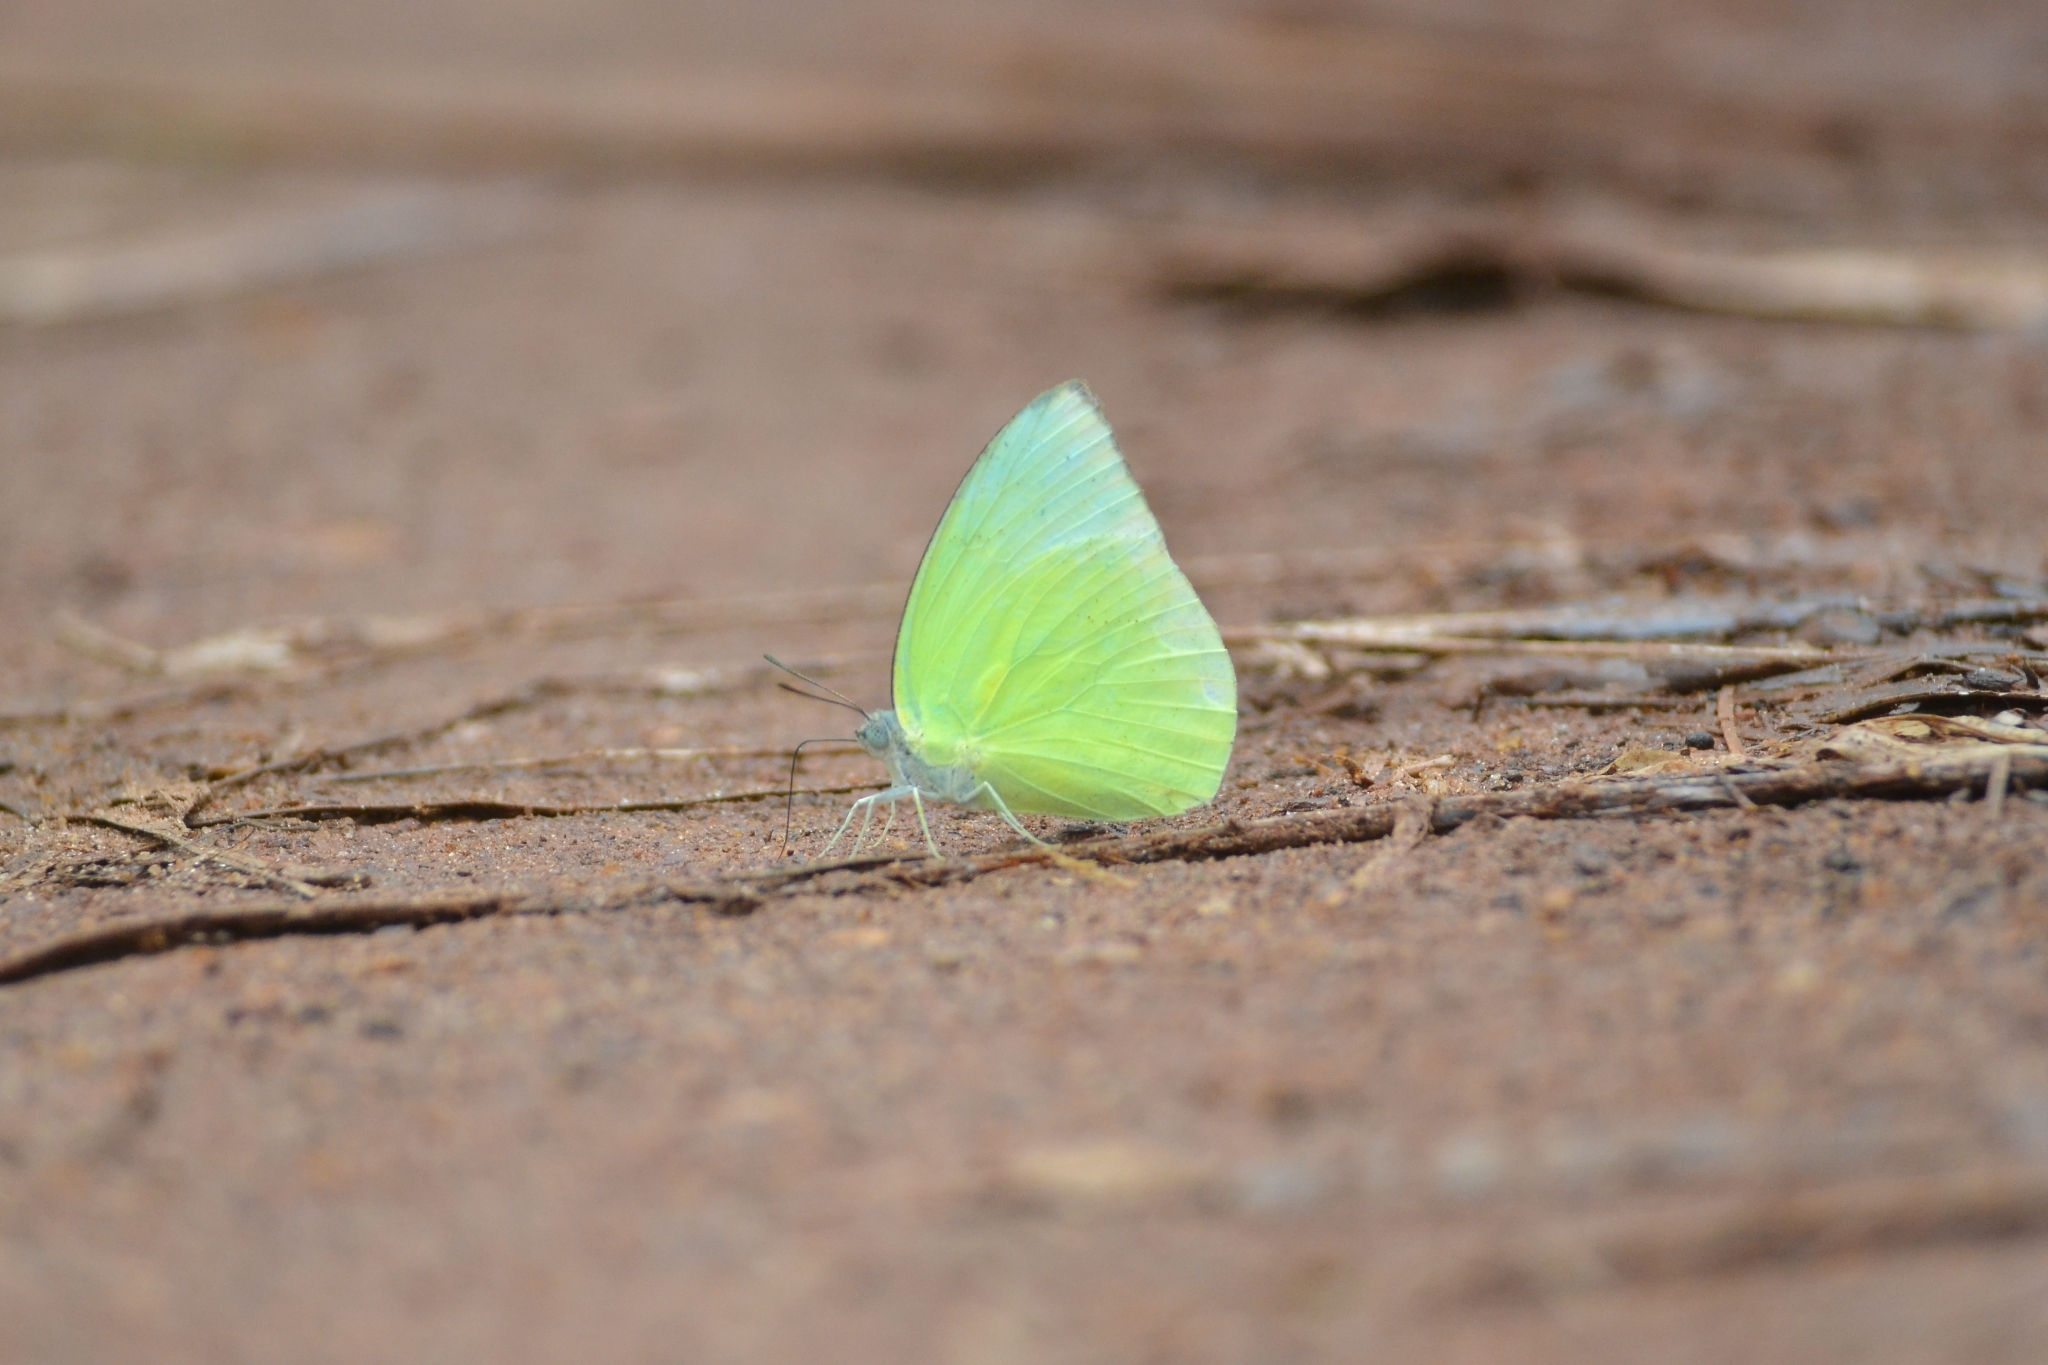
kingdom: Animalia
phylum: Arthropoda
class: Insecta
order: Lepidoptera
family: Pieridae
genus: Catopsilia
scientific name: Catopsilia pomona
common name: Common emigrant
